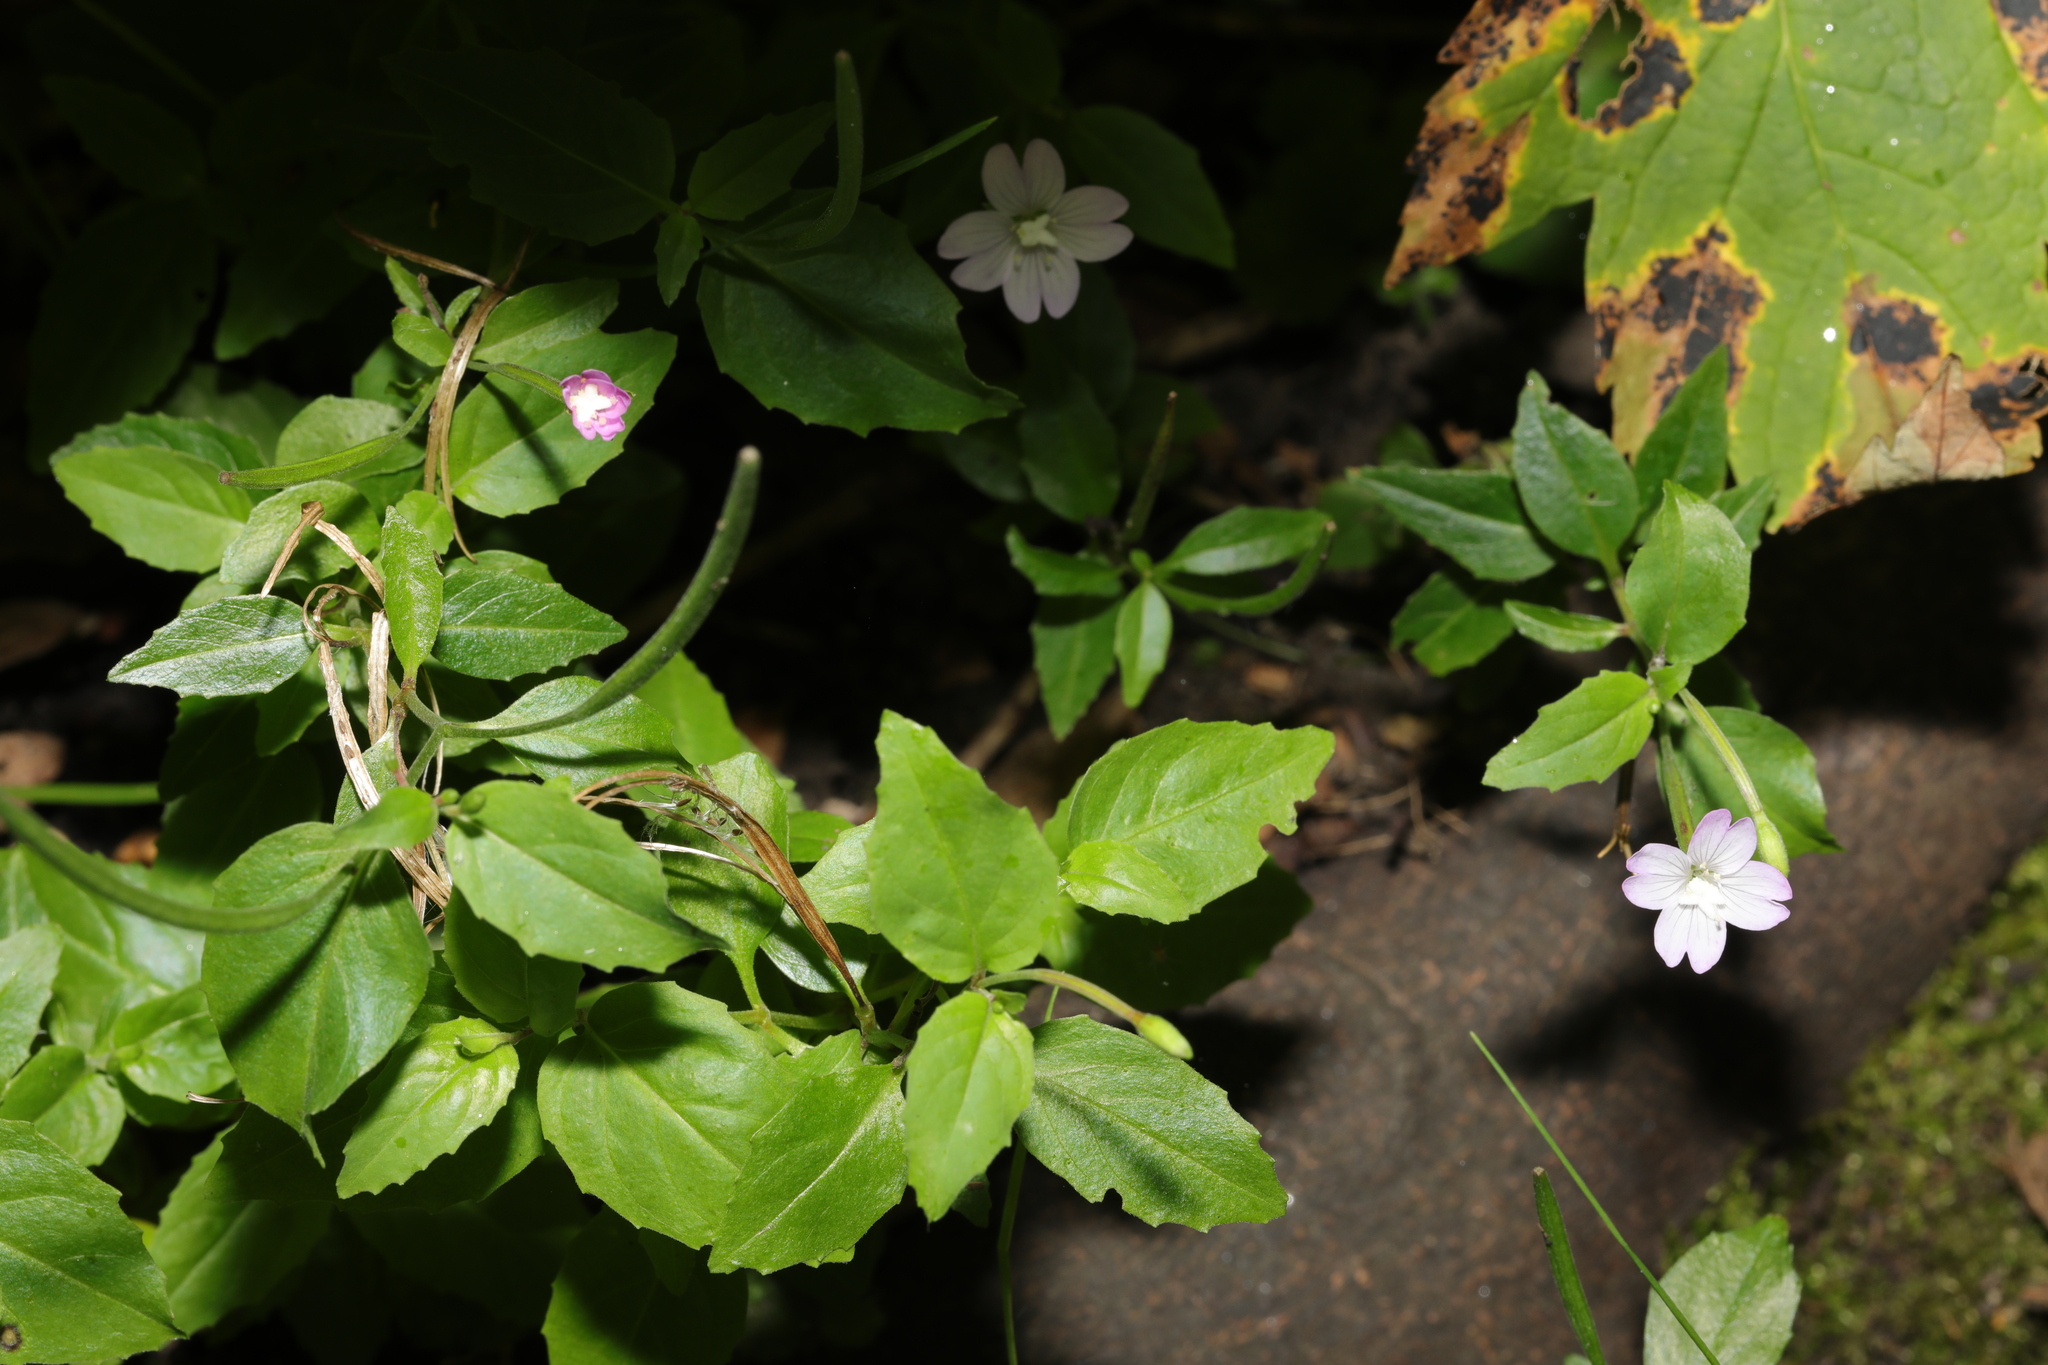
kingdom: Plantae
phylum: Tracheophyta
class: Magnoliopsida
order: Myrtales
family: Onagraceae
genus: Epilobium
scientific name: Epilobium montanum
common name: Broad-leaved willowherb
